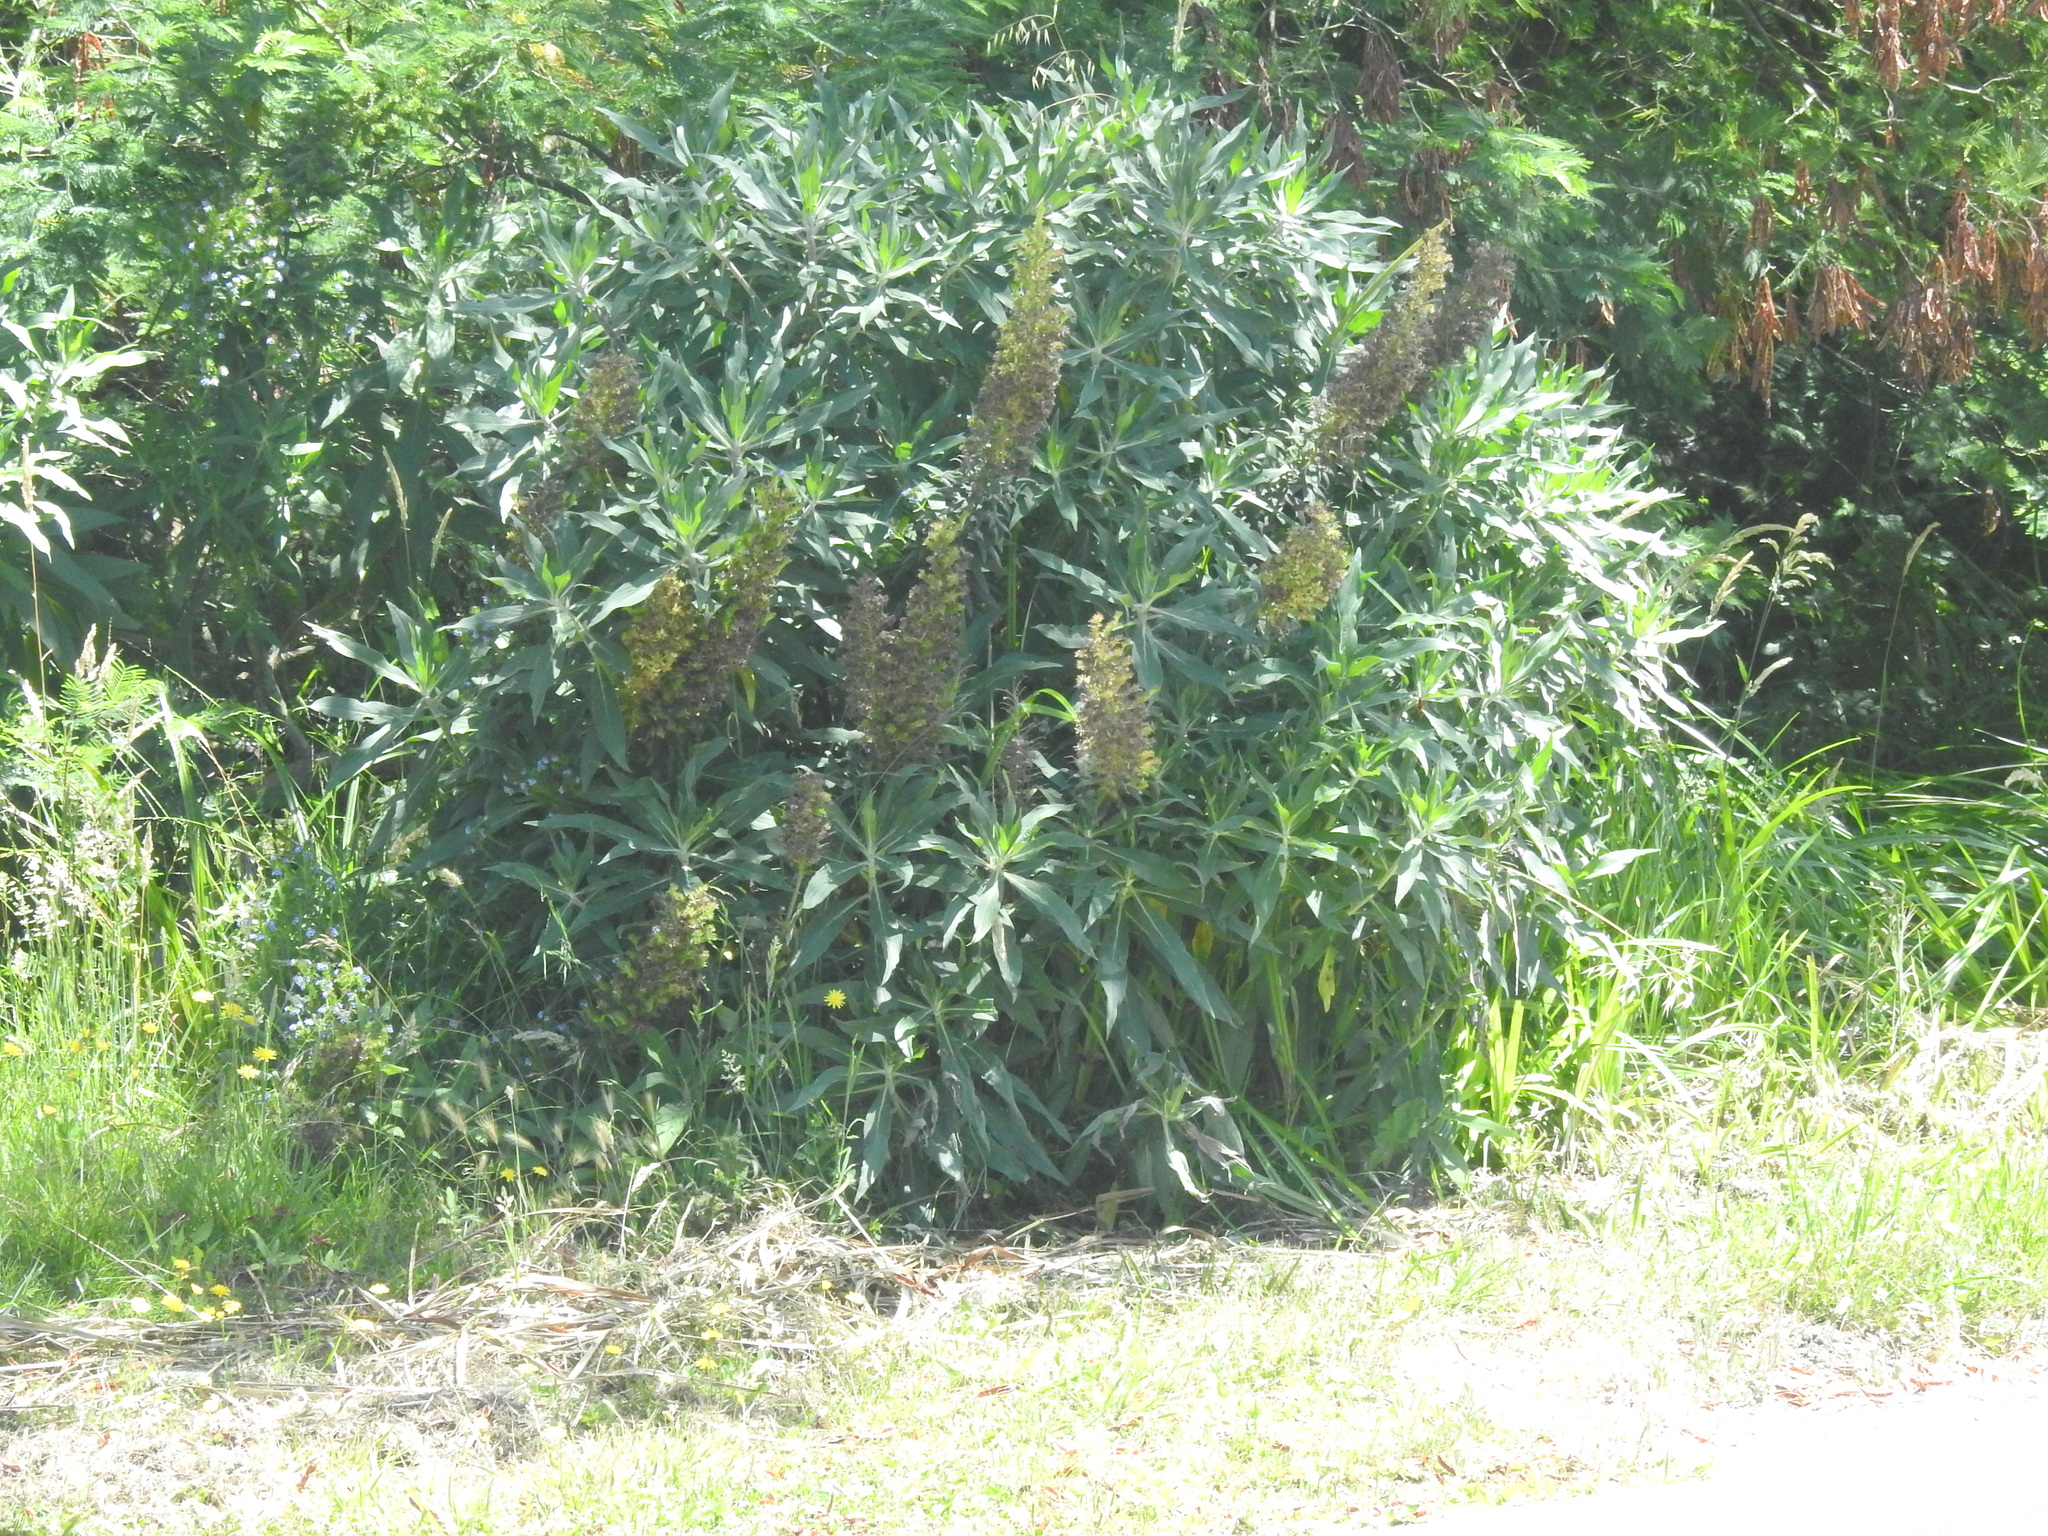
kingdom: Plantae
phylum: Tracheophyta
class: Magnoliopsida
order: Boraginales
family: Boraginaceae
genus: Echium
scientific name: Echium candicans
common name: Pride of madeira
